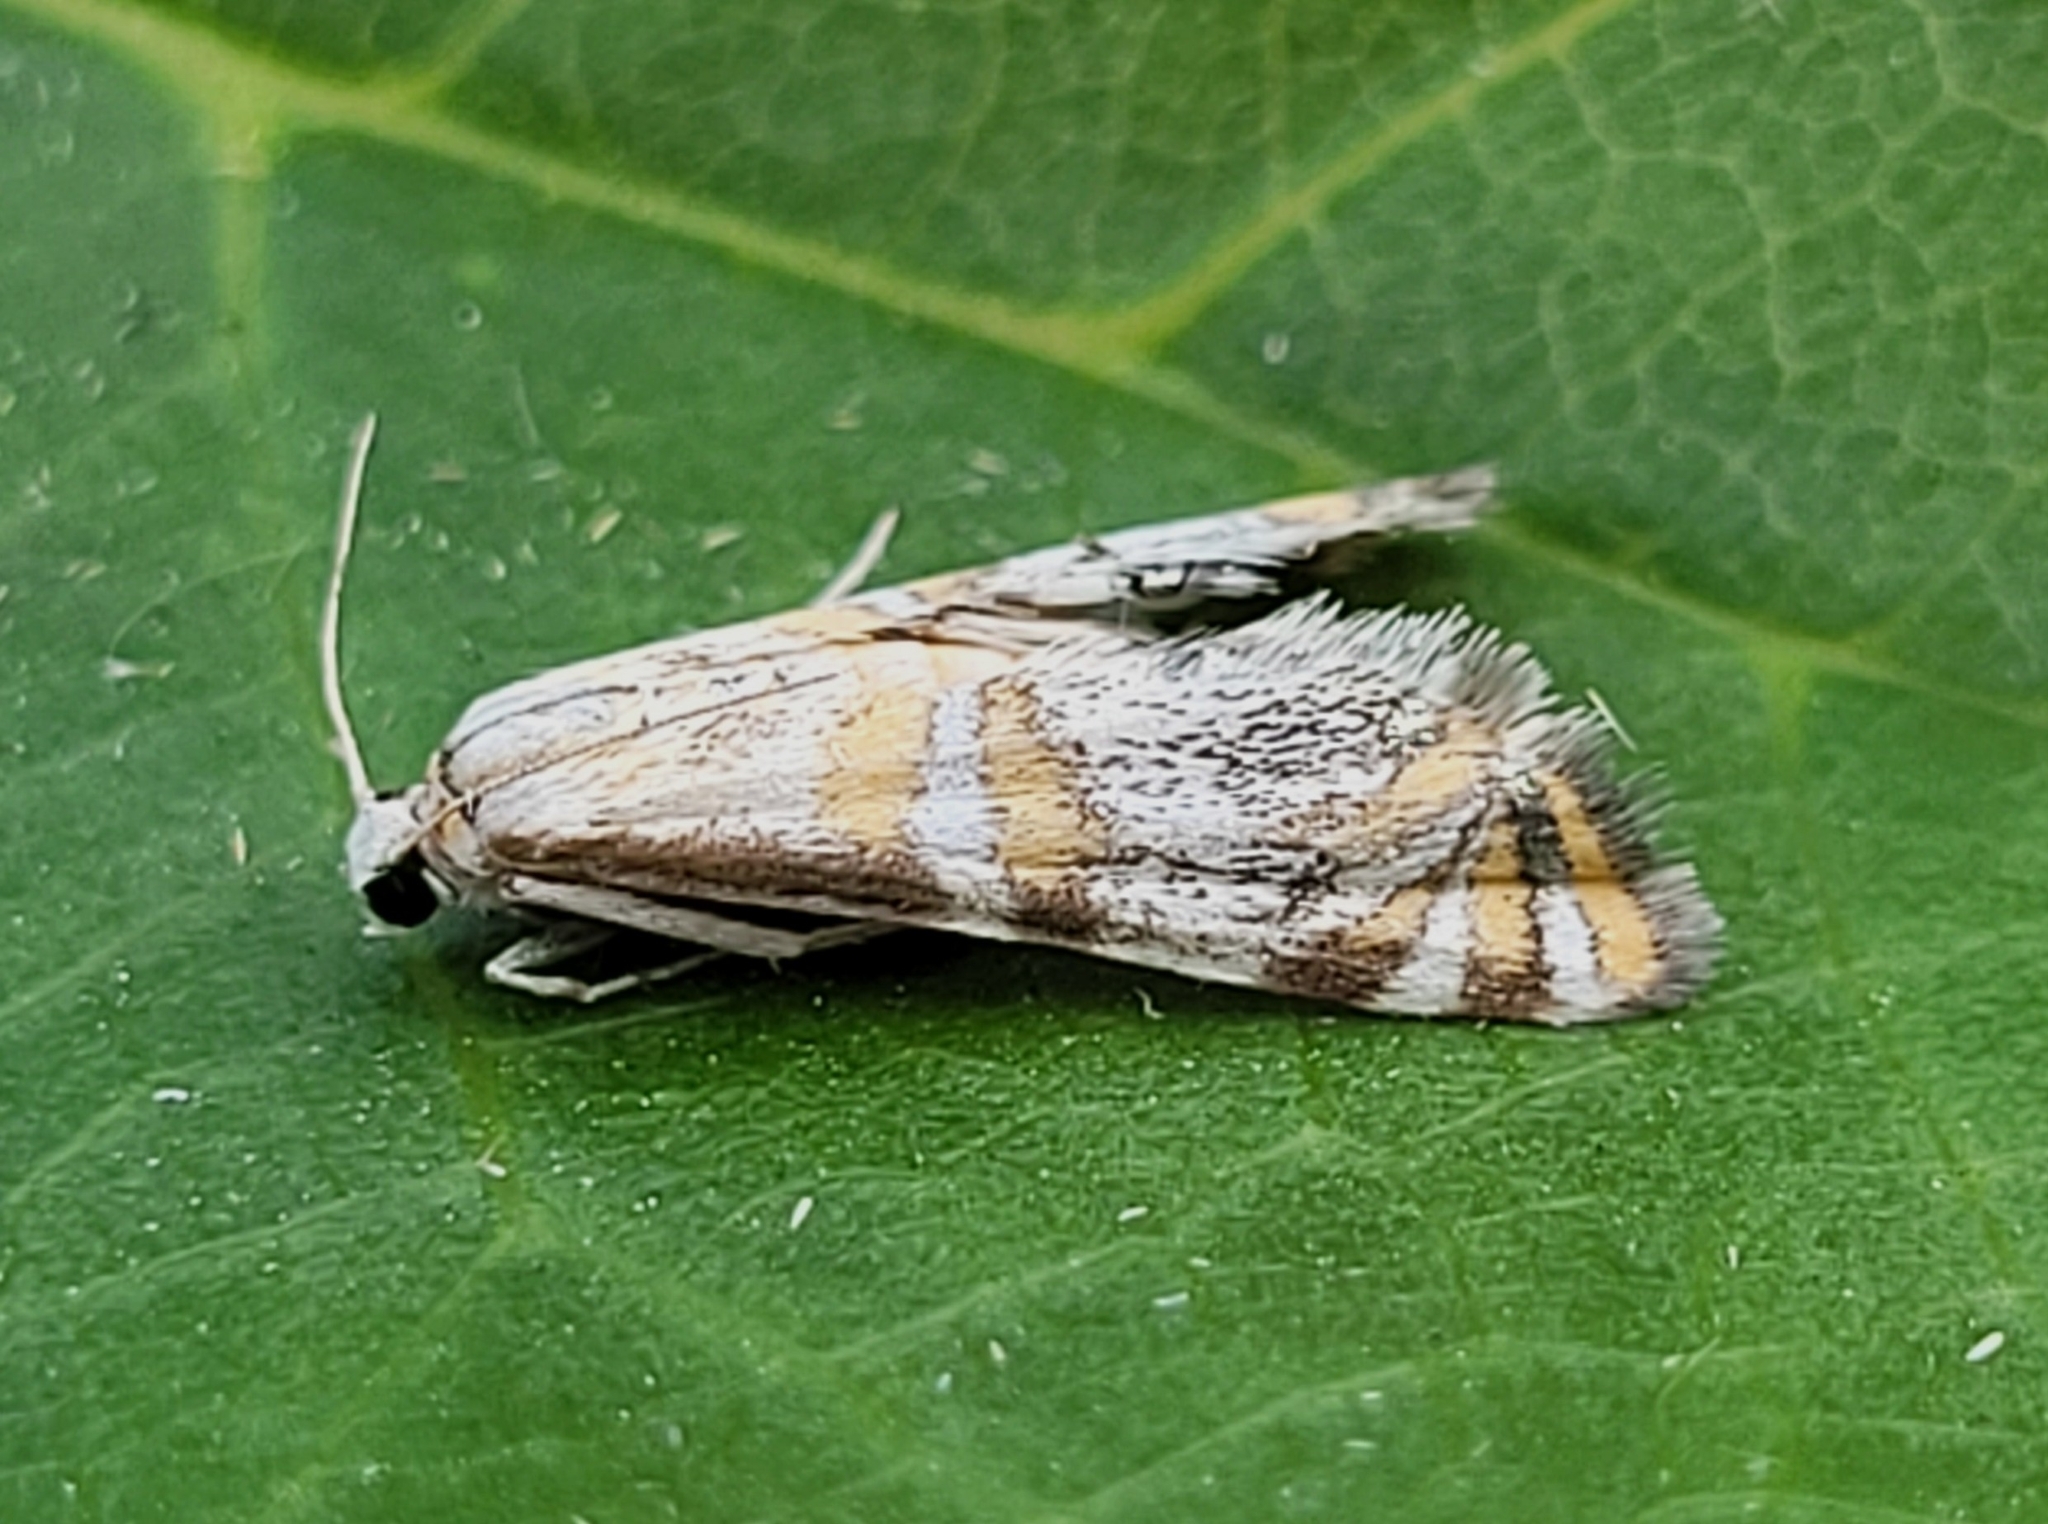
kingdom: Animalia
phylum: Arthropoda
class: Insecta
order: Lepidoptera
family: Crambidae
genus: Petrophila
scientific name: Petrophila kearfottalis
